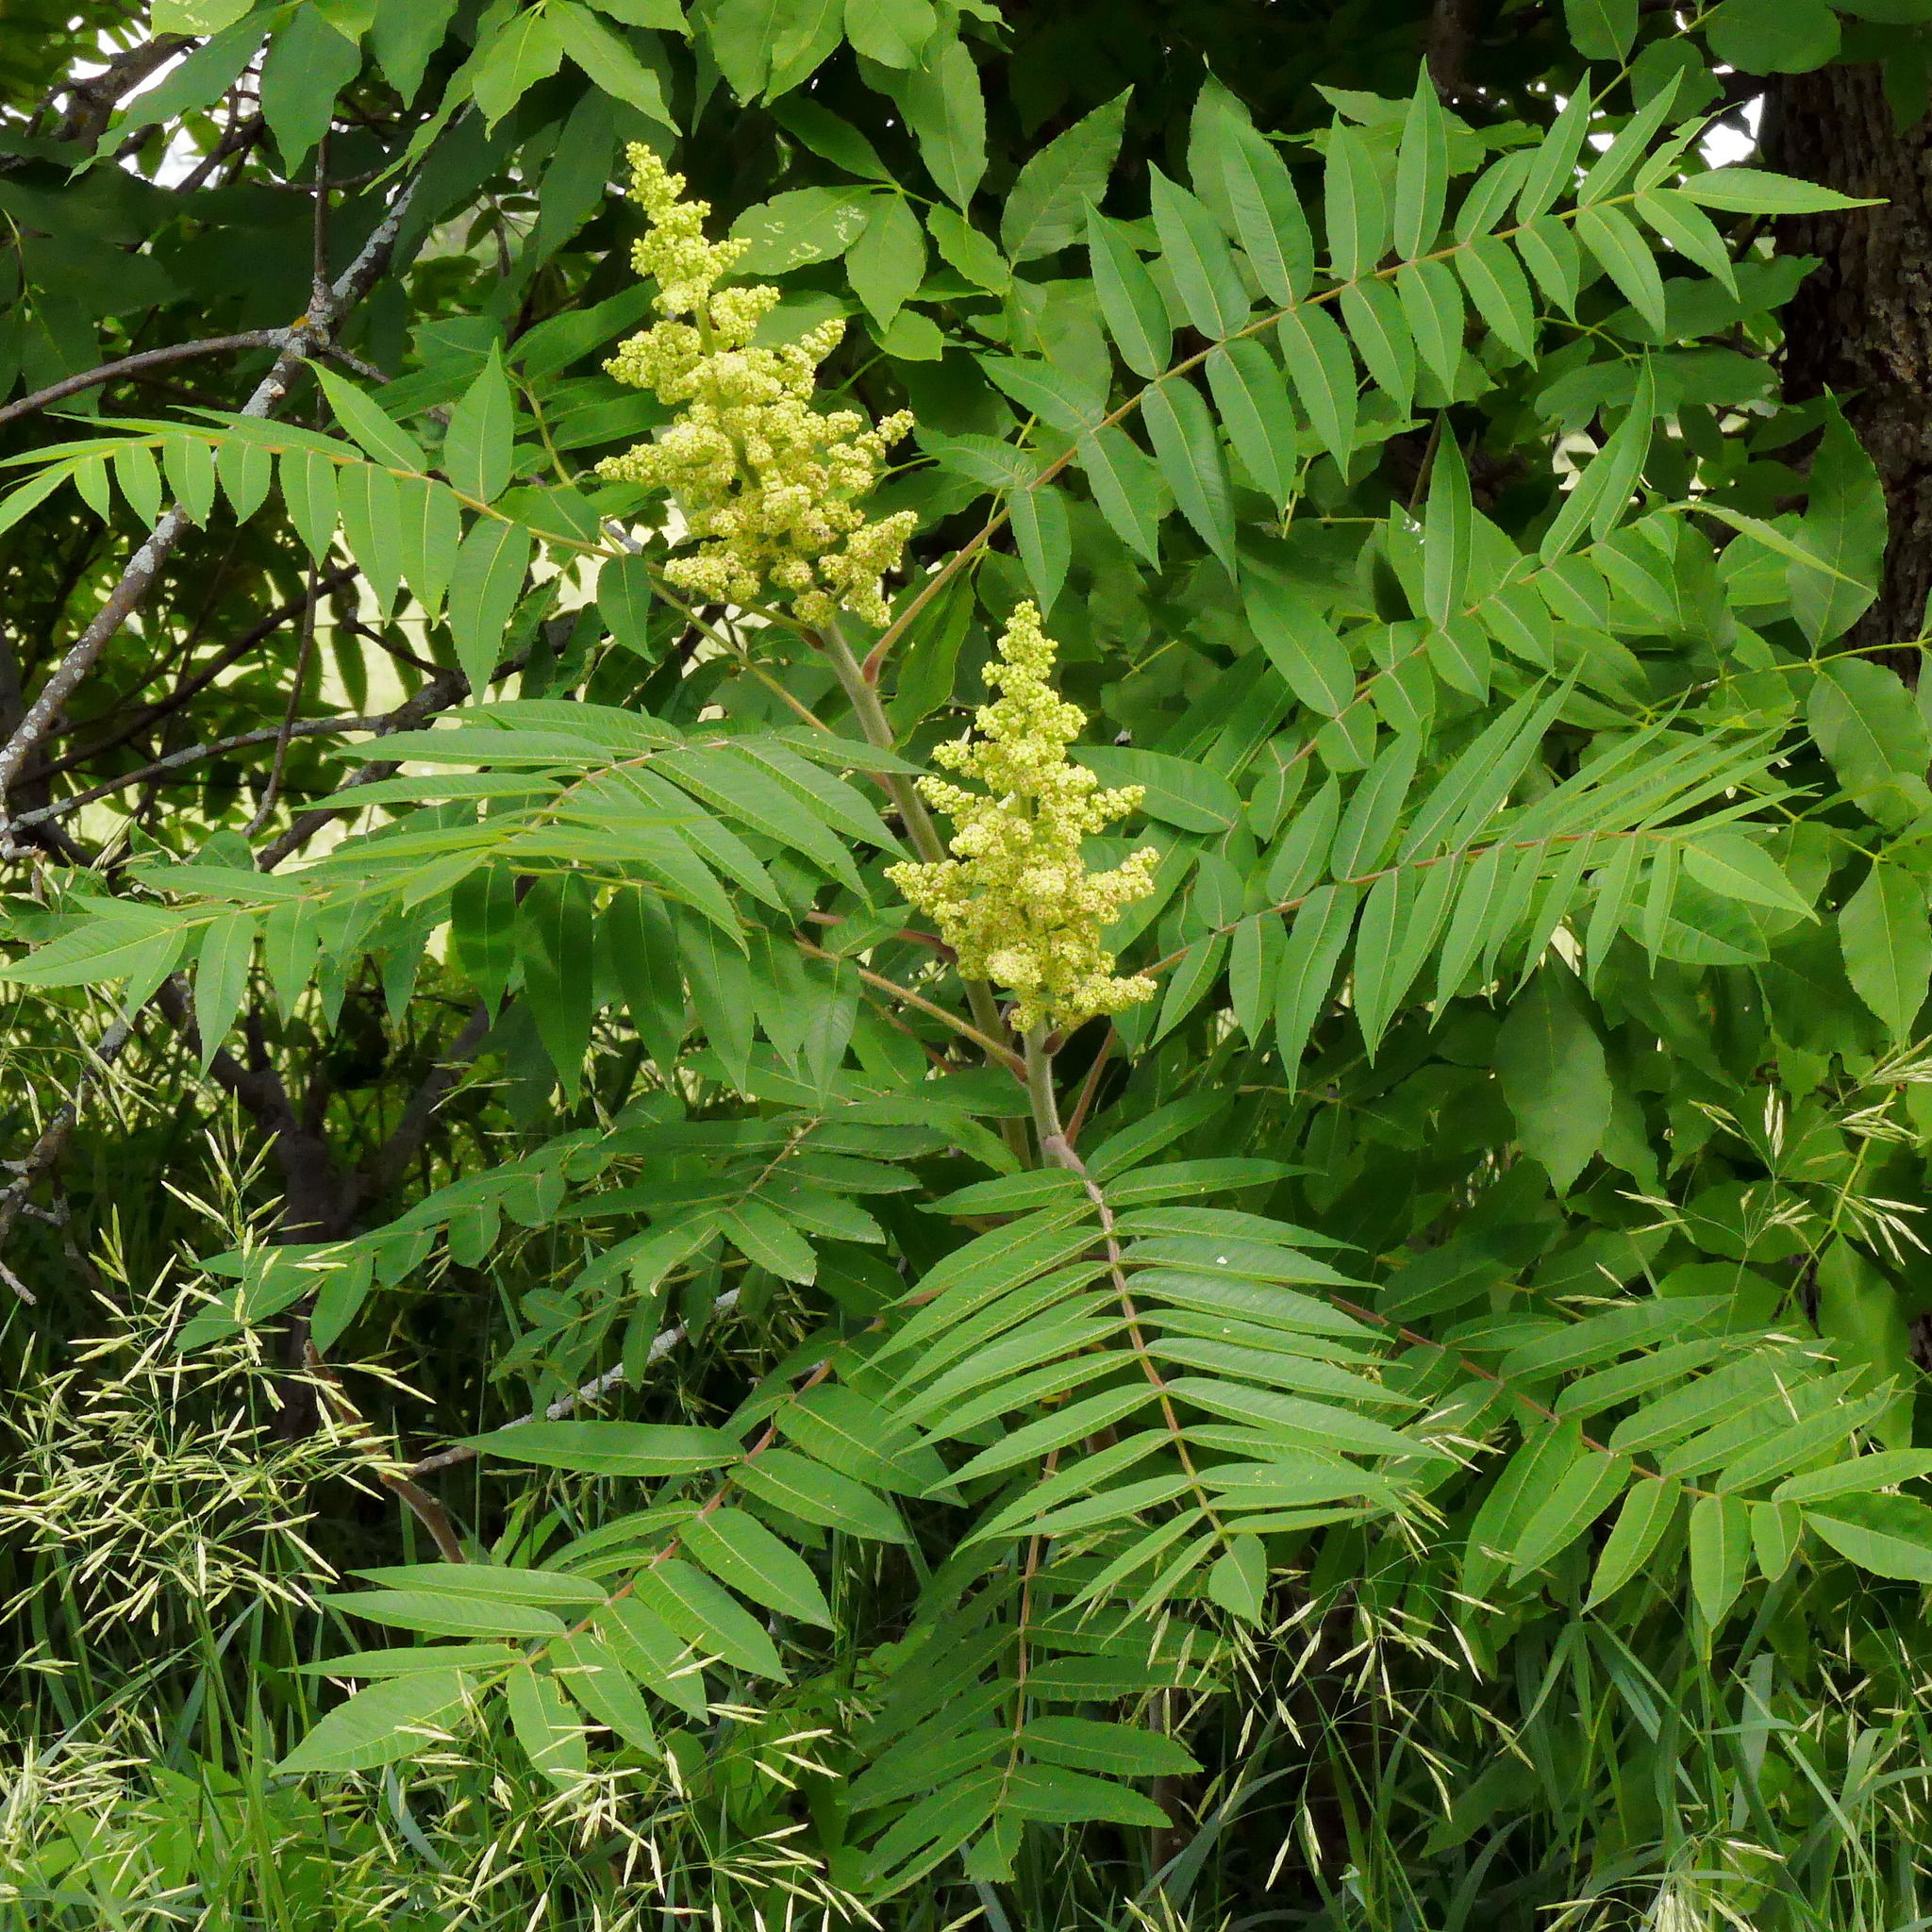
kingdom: Plantae
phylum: Tracheophyta
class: Magnoliopsida
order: Sapindales
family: Anacardiaceae
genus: Rhus
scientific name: Rhus typhina
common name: Staghorn sumac
